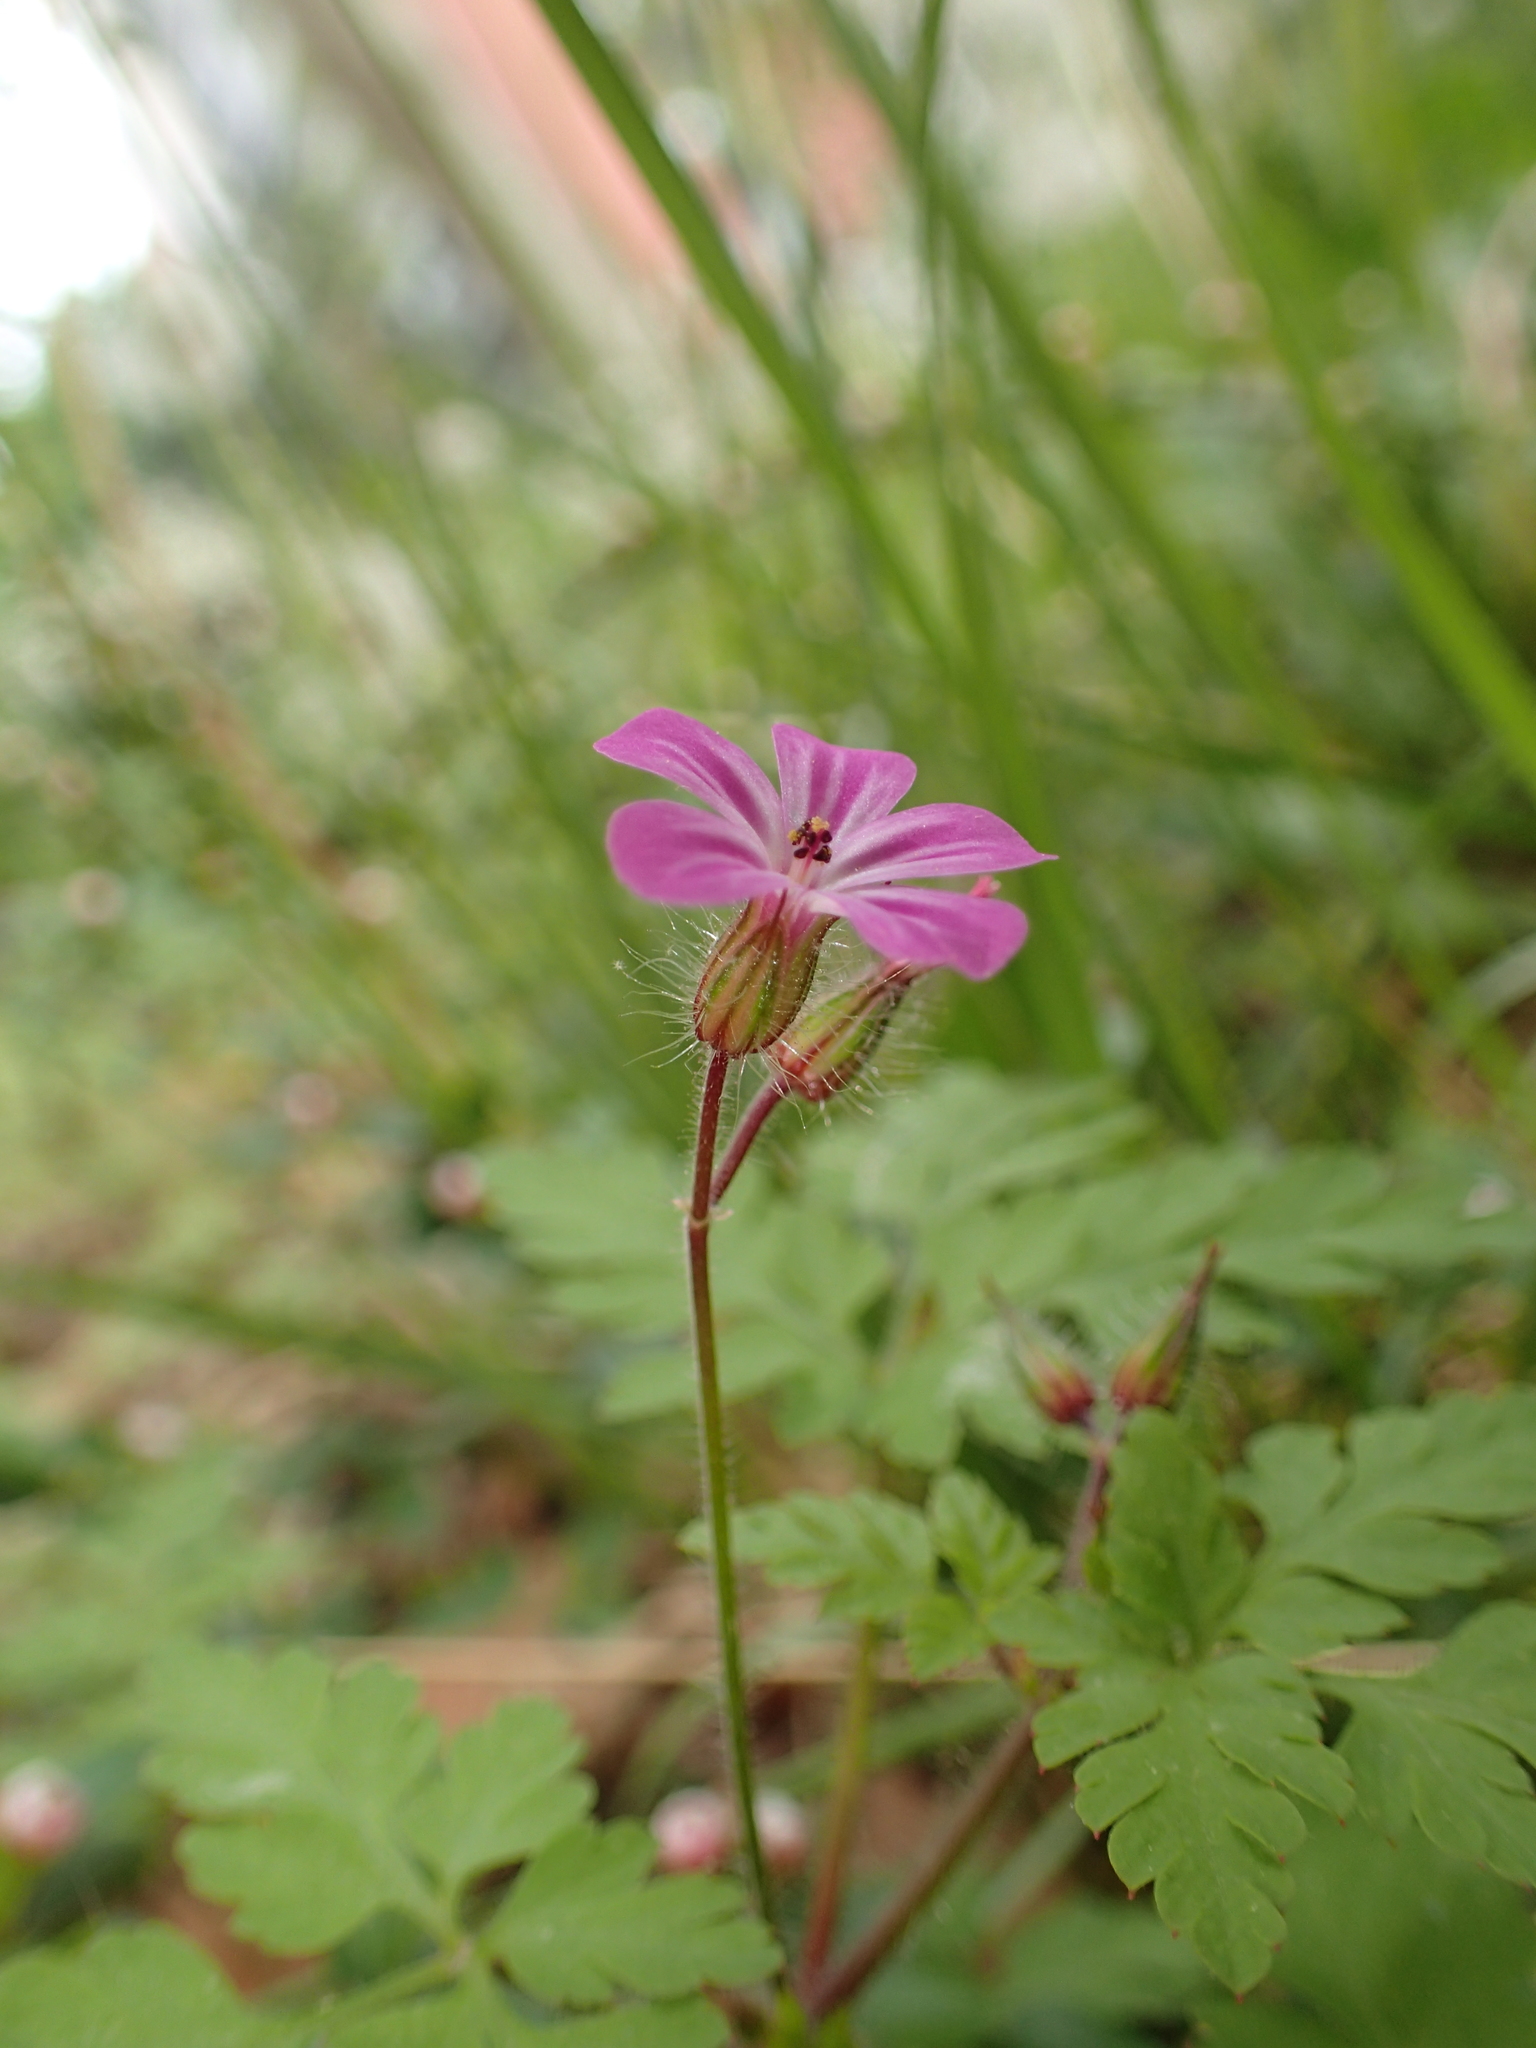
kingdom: Plantae
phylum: Tracheophyta
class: Magnoliopsida
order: Geraniales
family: Geraniaceae
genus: Geranium
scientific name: Geranium robertianum
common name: Herb-robert
